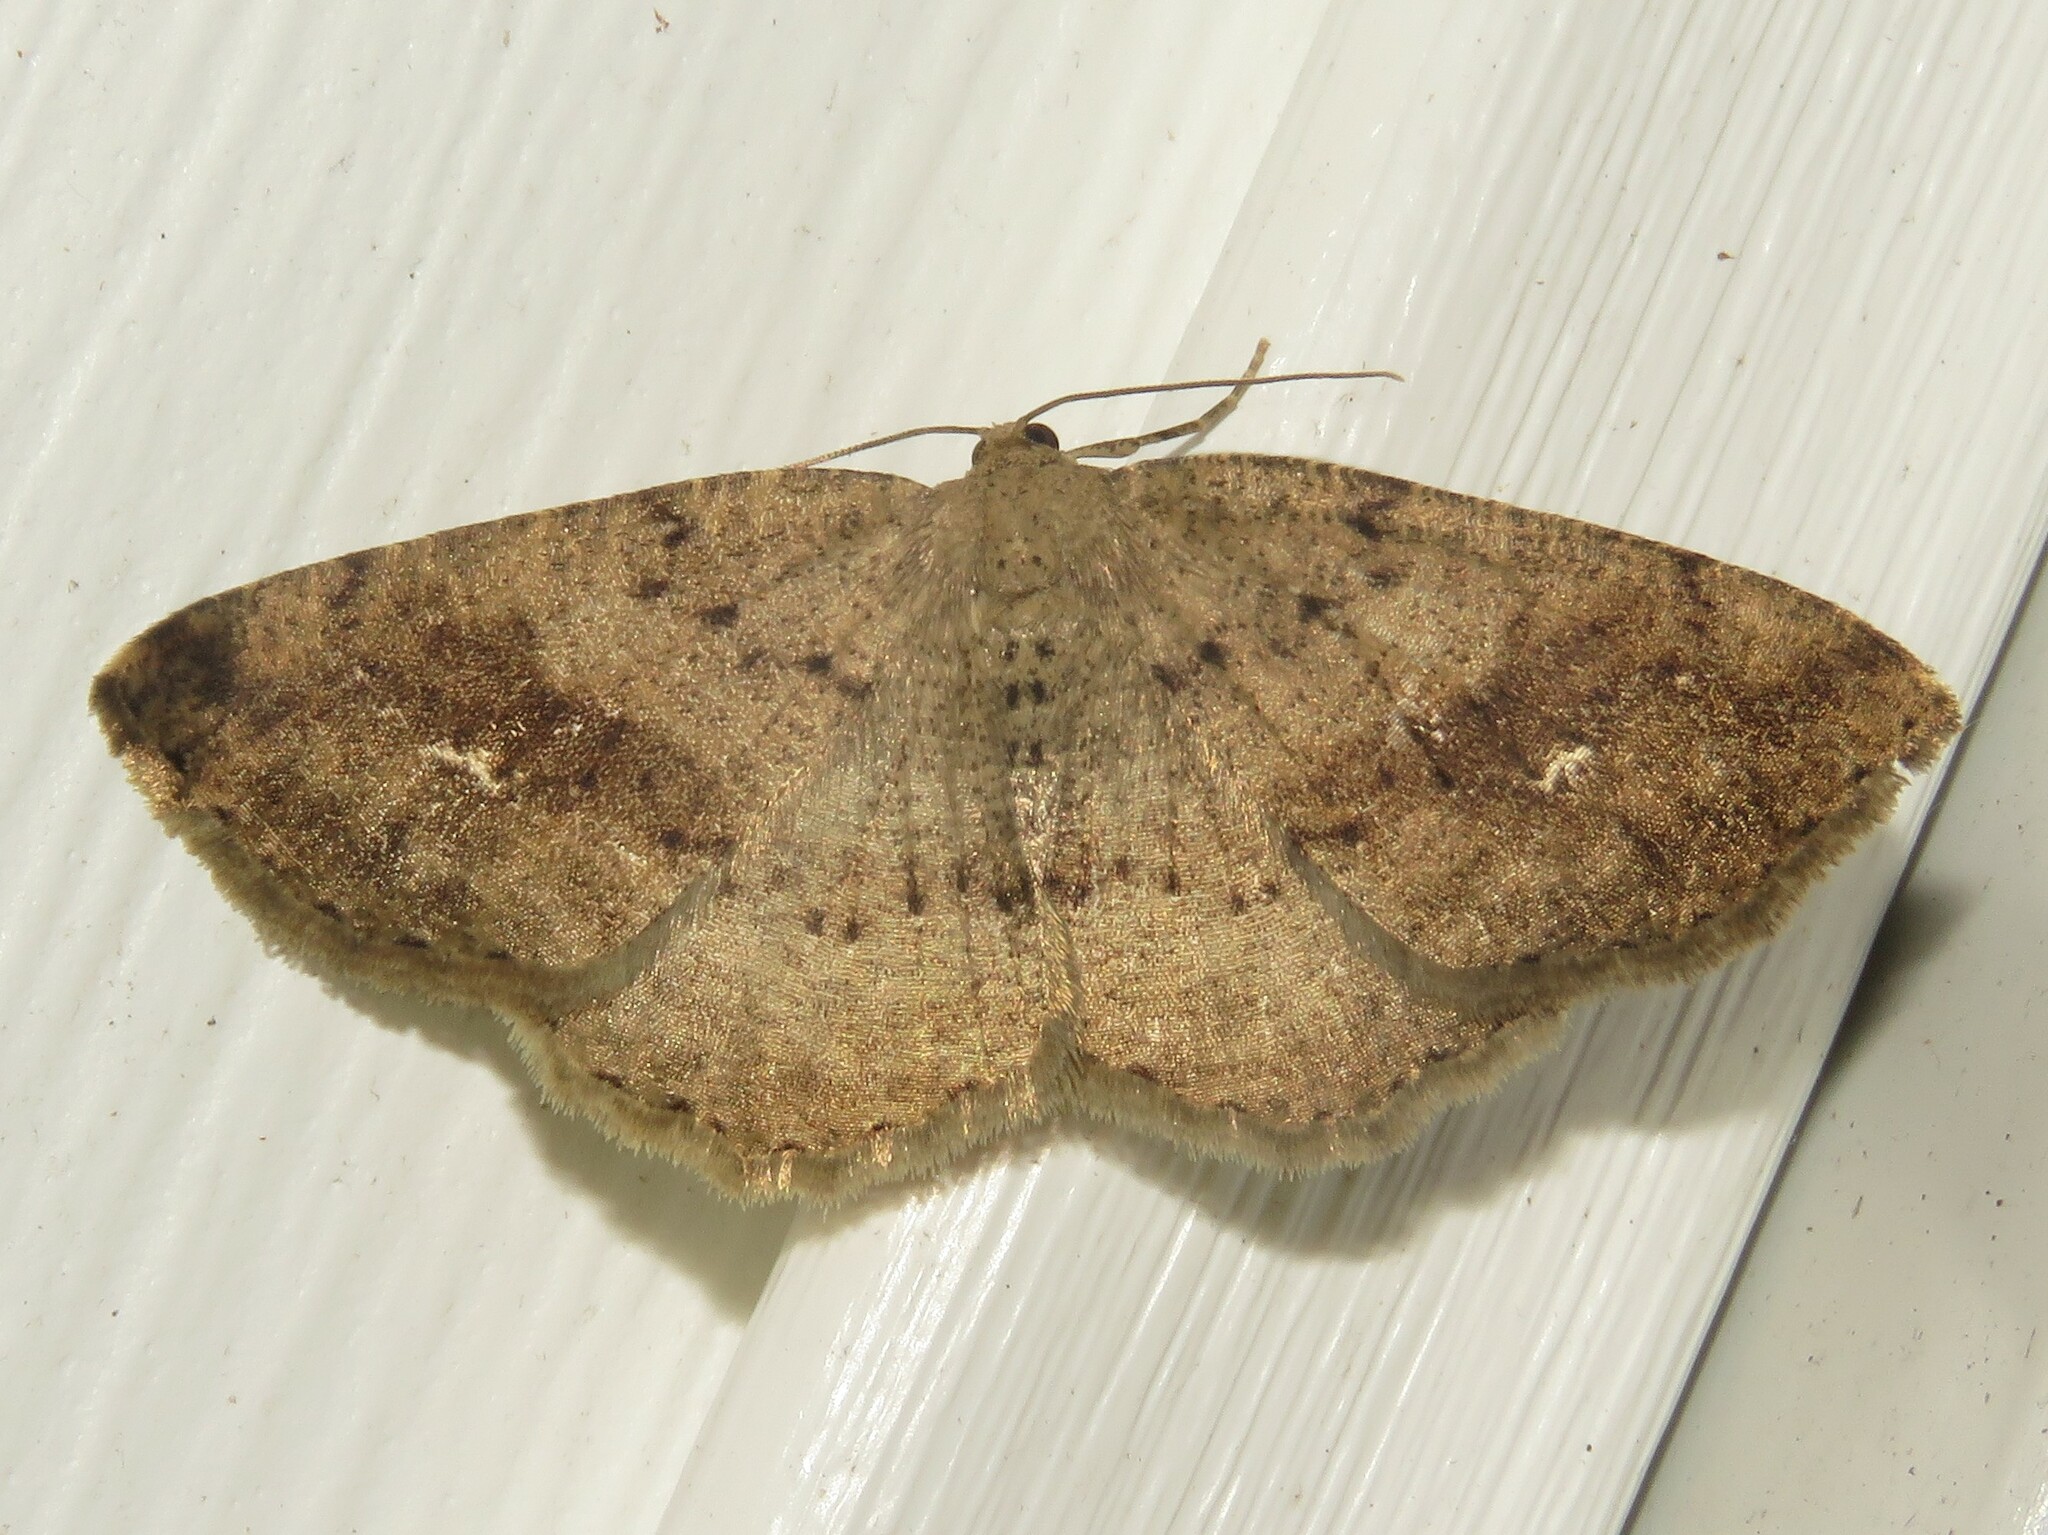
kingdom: Animalia
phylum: Arthropoda
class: Insecta
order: Lepidoptera
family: Geometridae
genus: Homochlodes
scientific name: Homochlodes fritillaria
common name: Pale homochlodes
